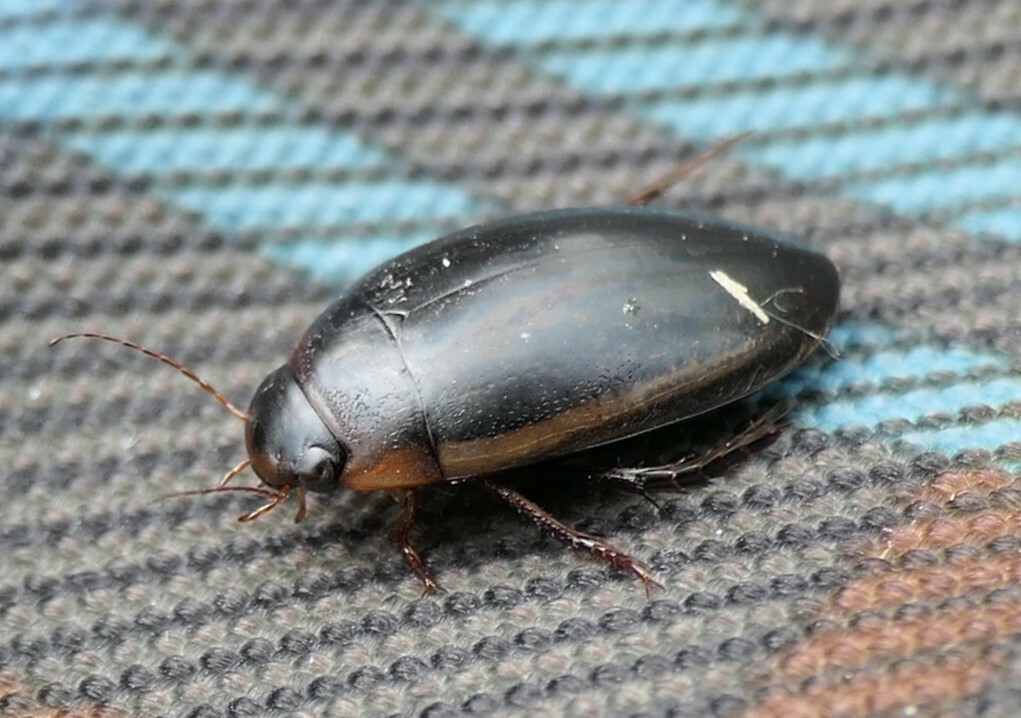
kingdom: Animalia
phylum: Arthropoda
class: Insecta
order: Coleoptera
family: Dytiscidae
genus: Hydaticus
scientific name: Hydaticus seminiger
